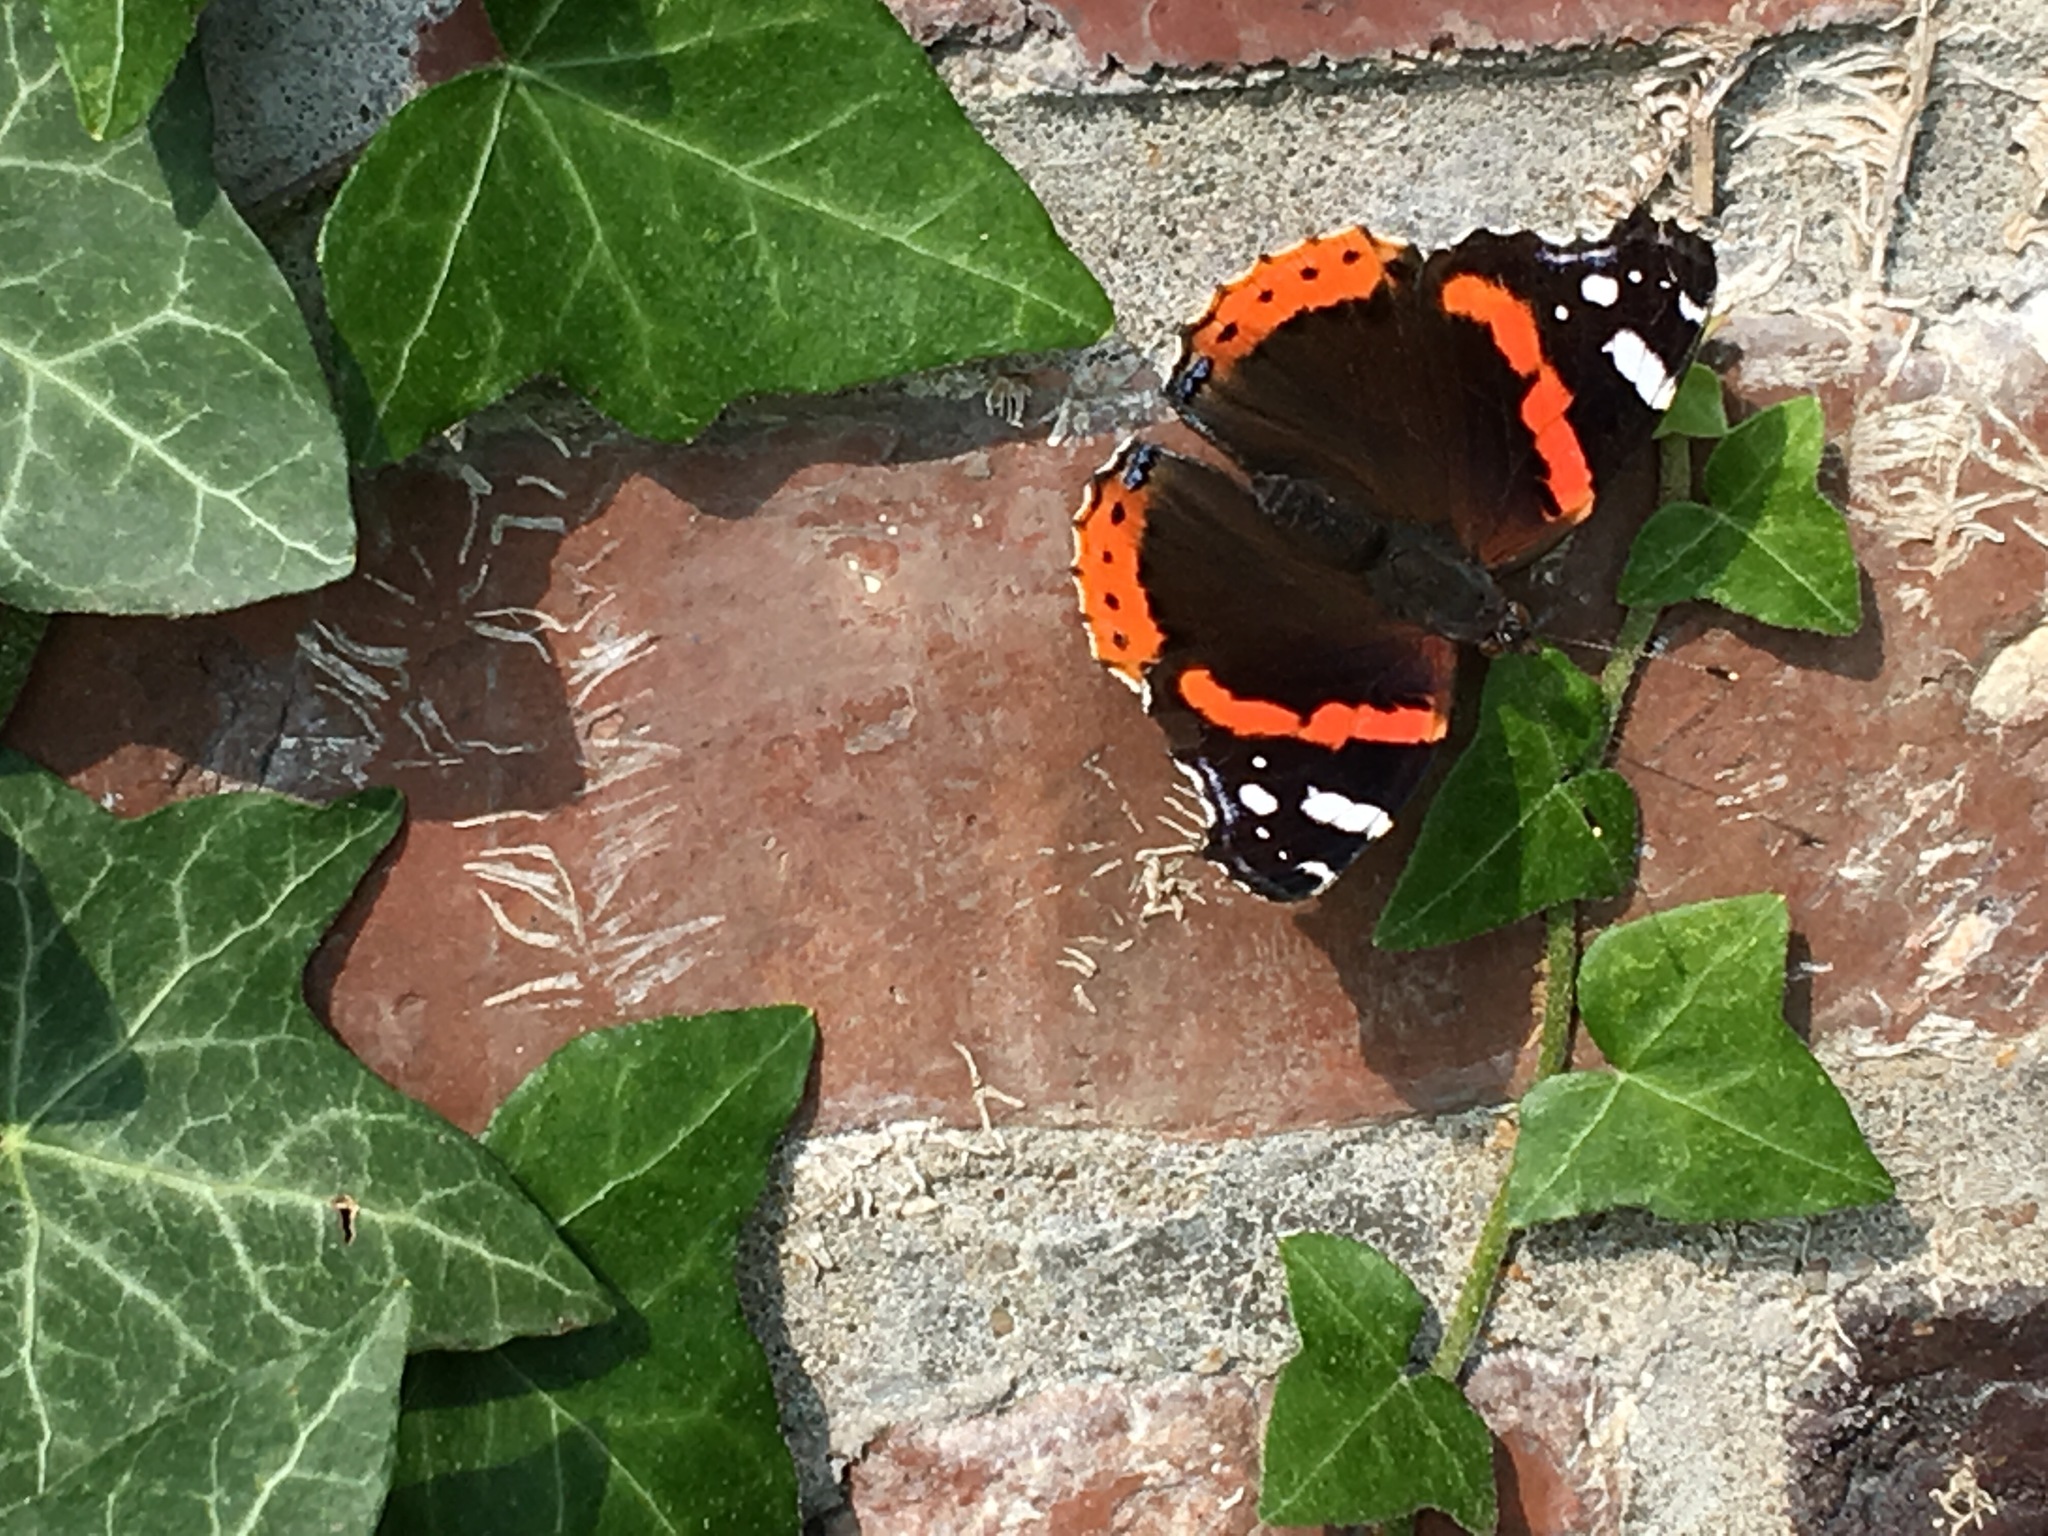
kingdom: Animalia
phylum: Arthropoda
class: Insecta
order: Lepidoptera
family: Nymphalidae
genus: Vanessa
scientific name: Vanessa atalanta
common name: Red admiral
